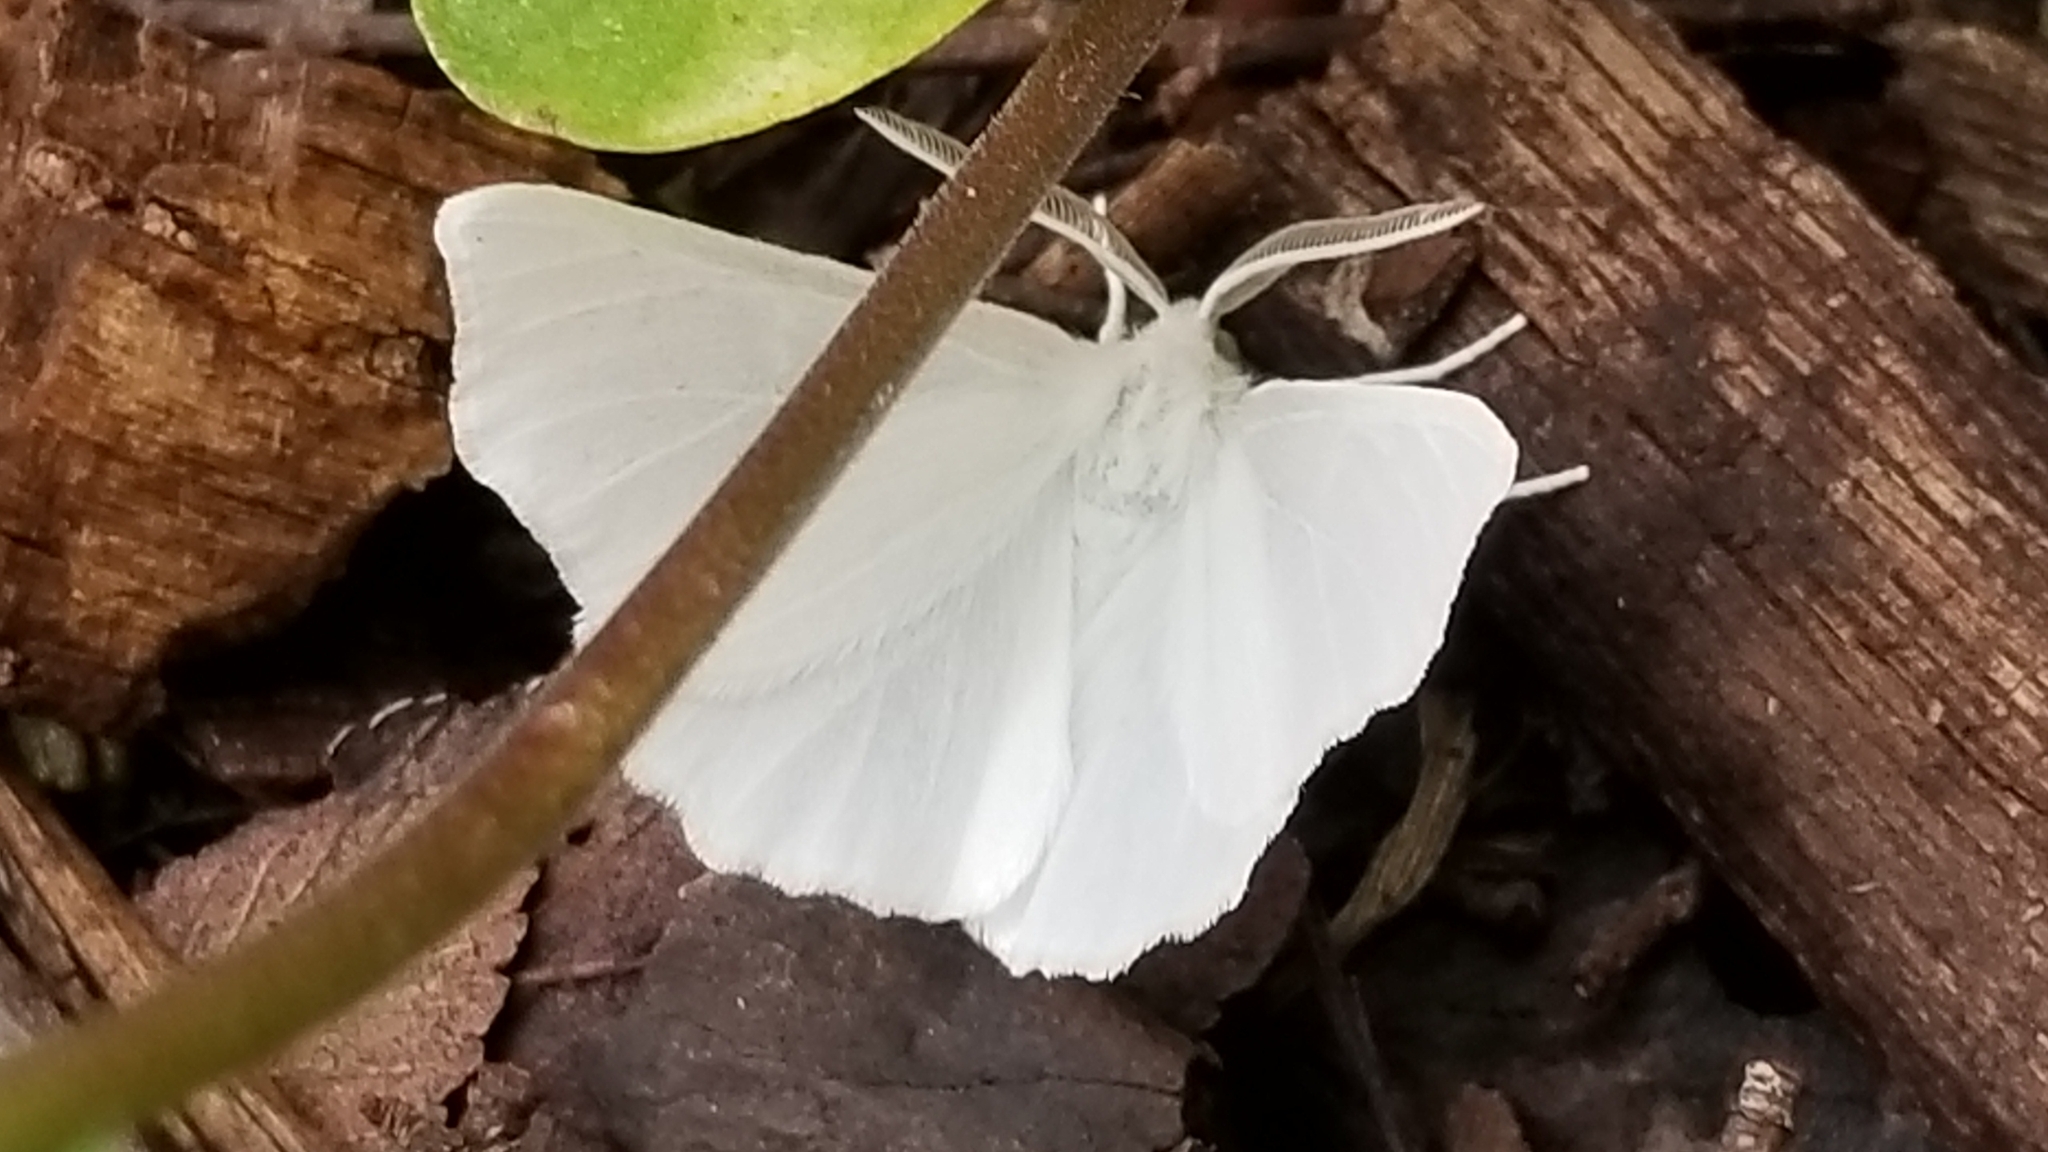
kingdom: Animalia
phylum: Arthropoda
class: Insecta
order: Lepidoptera
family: Geometridae
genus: Ennomos
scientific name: Ennomos subsignaria
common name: Elm spanworm
